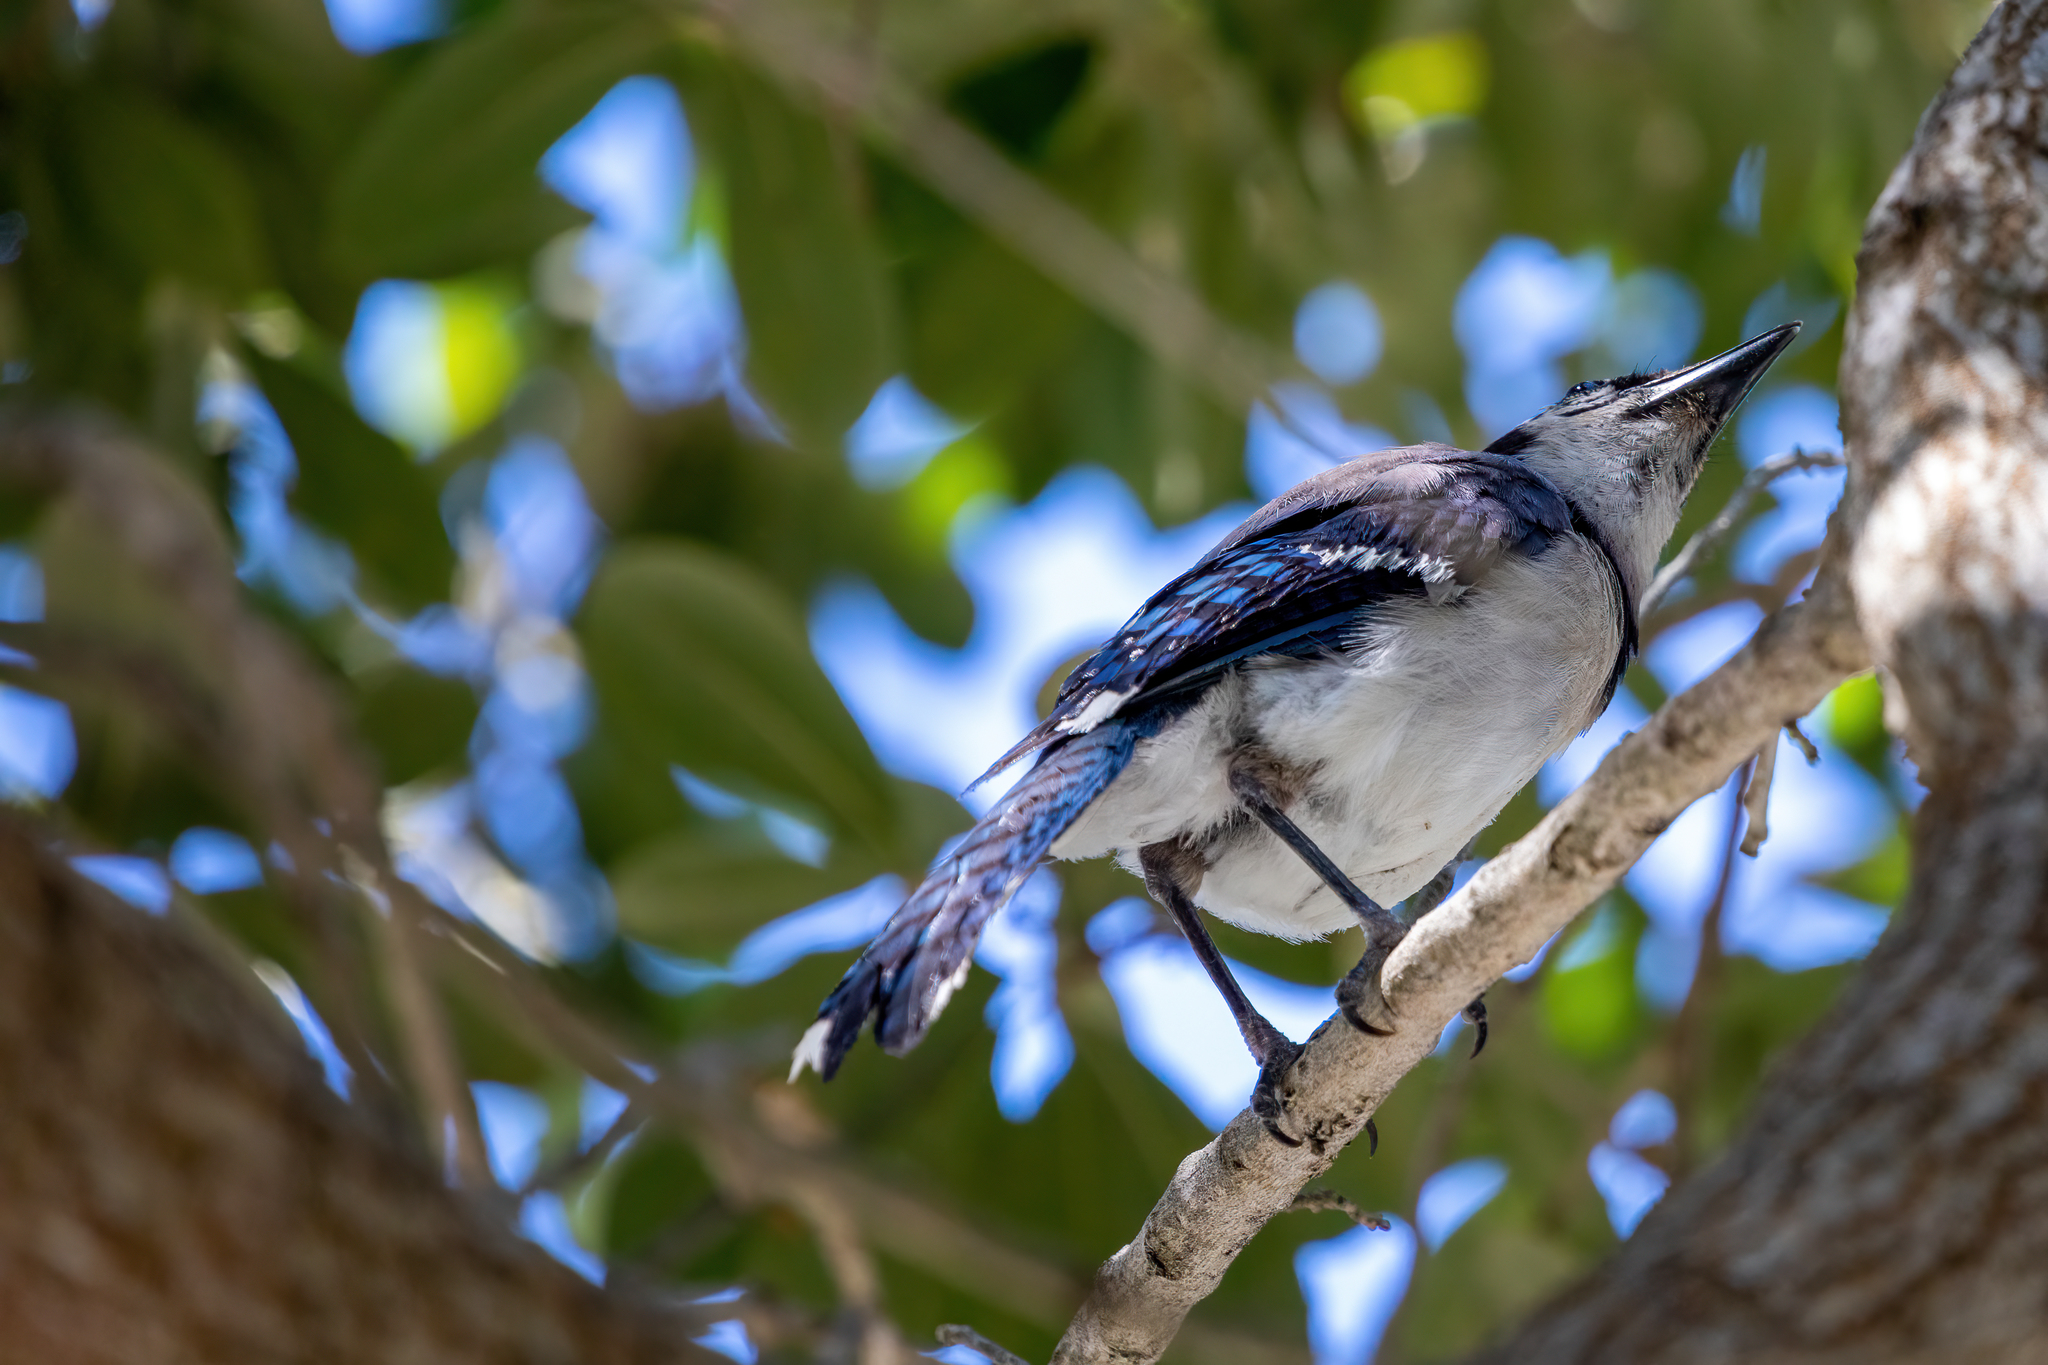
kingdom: Animalia
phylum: Chordata
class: Aves
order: Passeriformes
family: Corvidae
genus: Cyanocitta
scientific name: Cyanocitta cristata
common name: Blue jay
